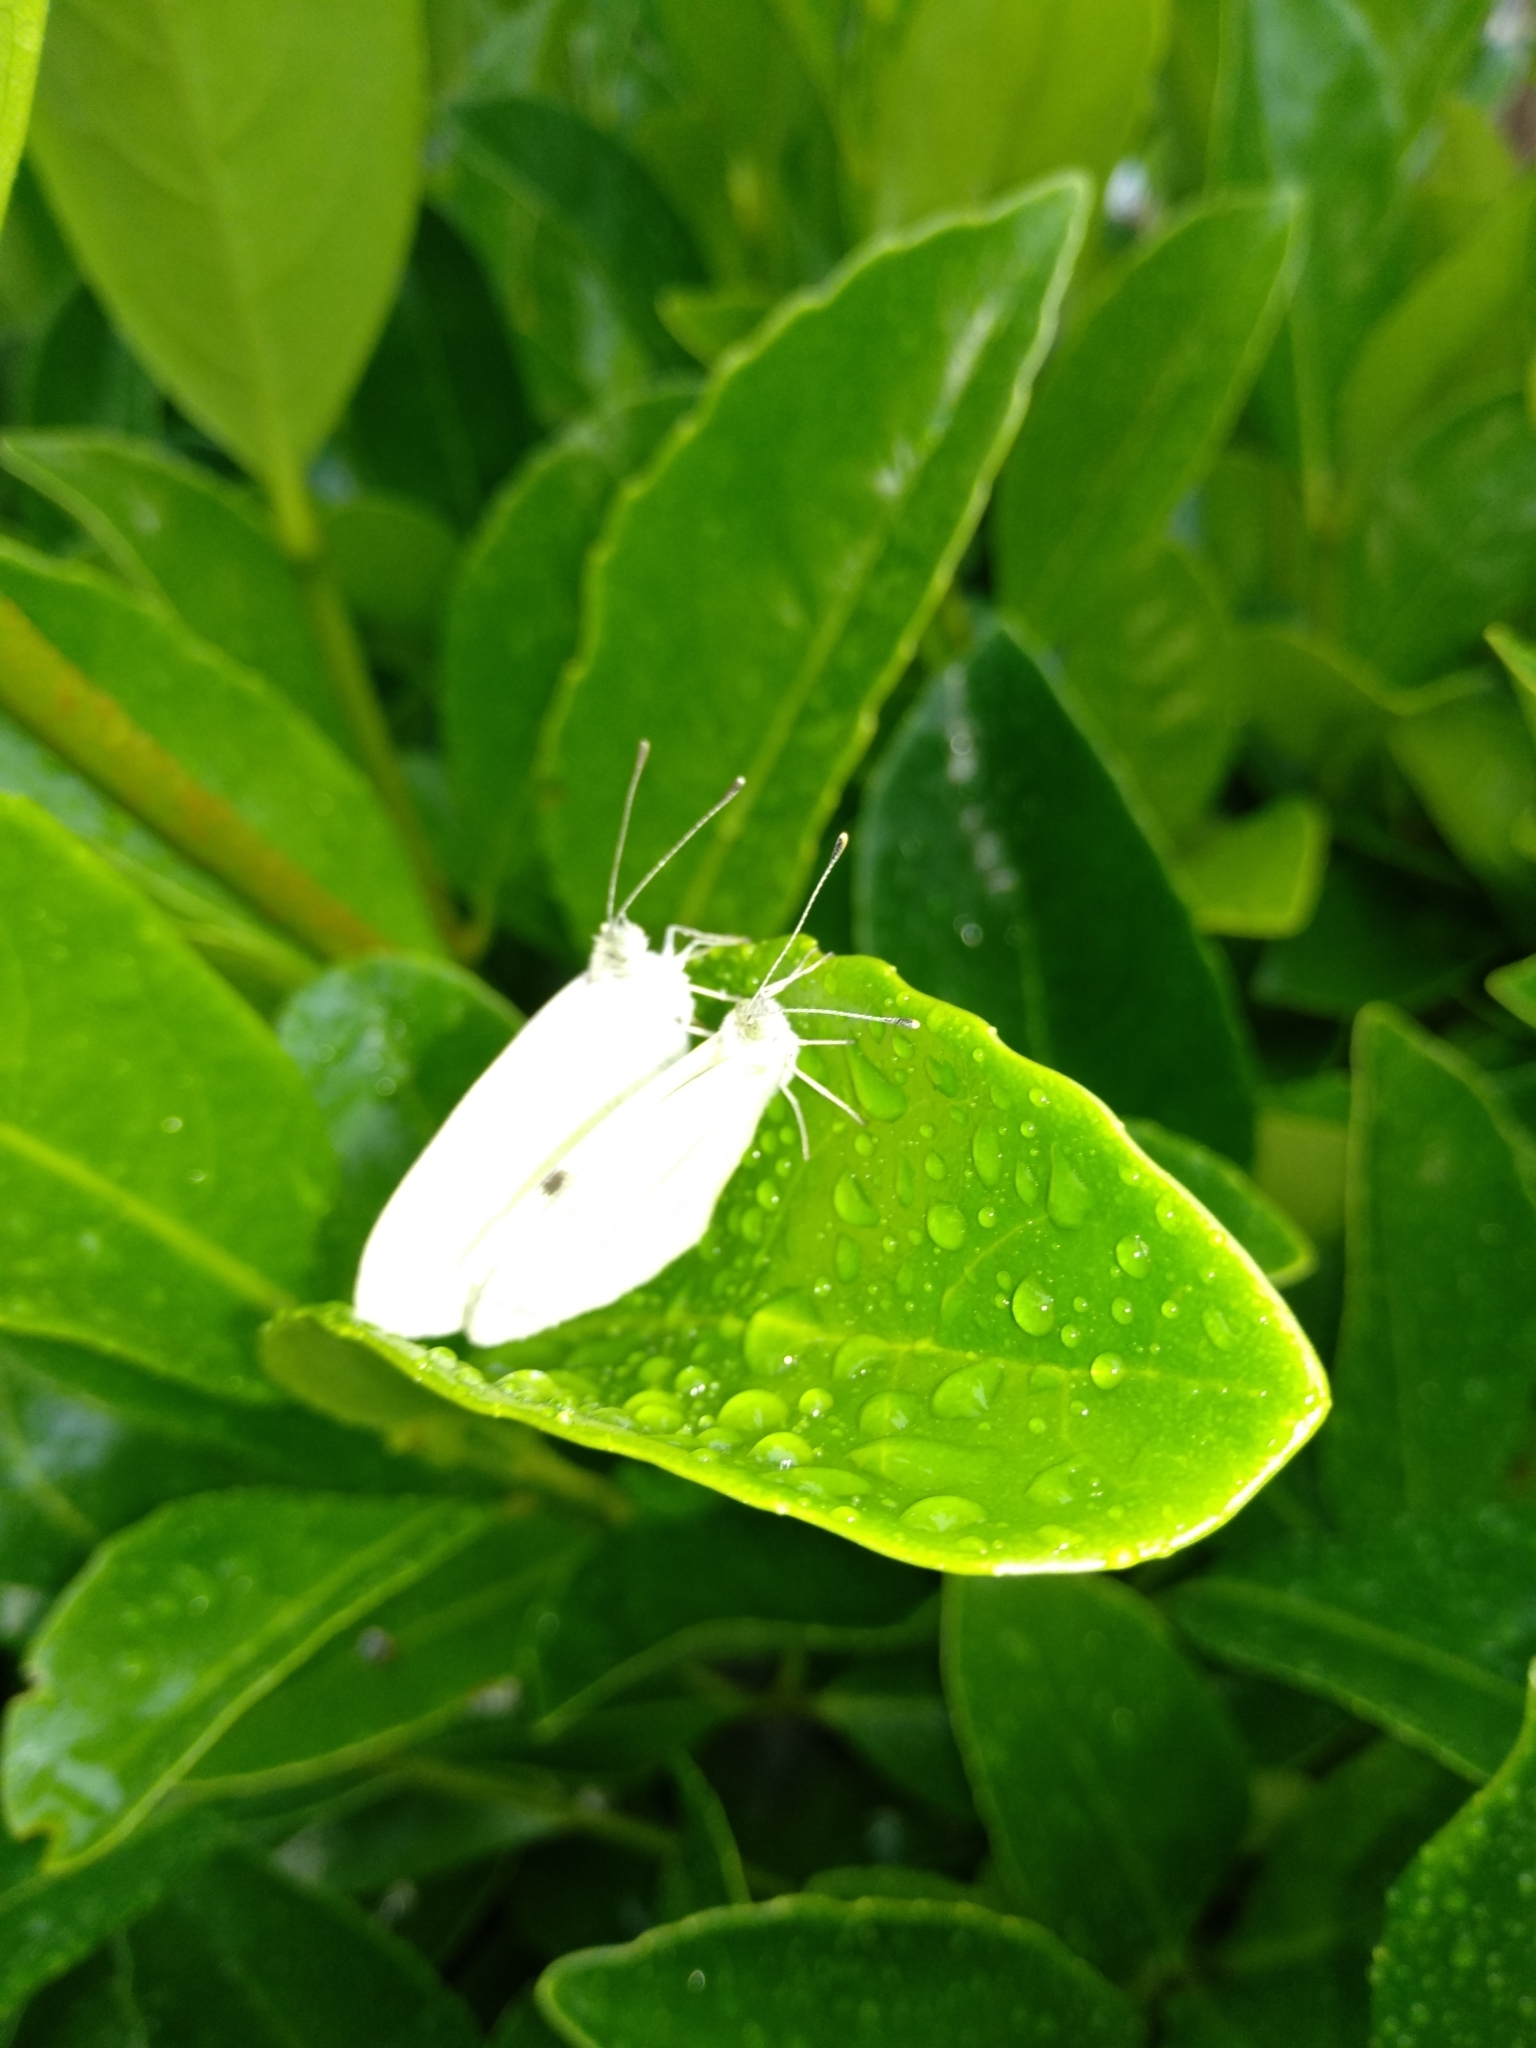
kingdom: Animalia
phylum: Arthropoda
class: Insecta
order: Lepidoptera
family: Pieridae
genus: Pieris
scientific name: Pieris rapae
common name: Small white
